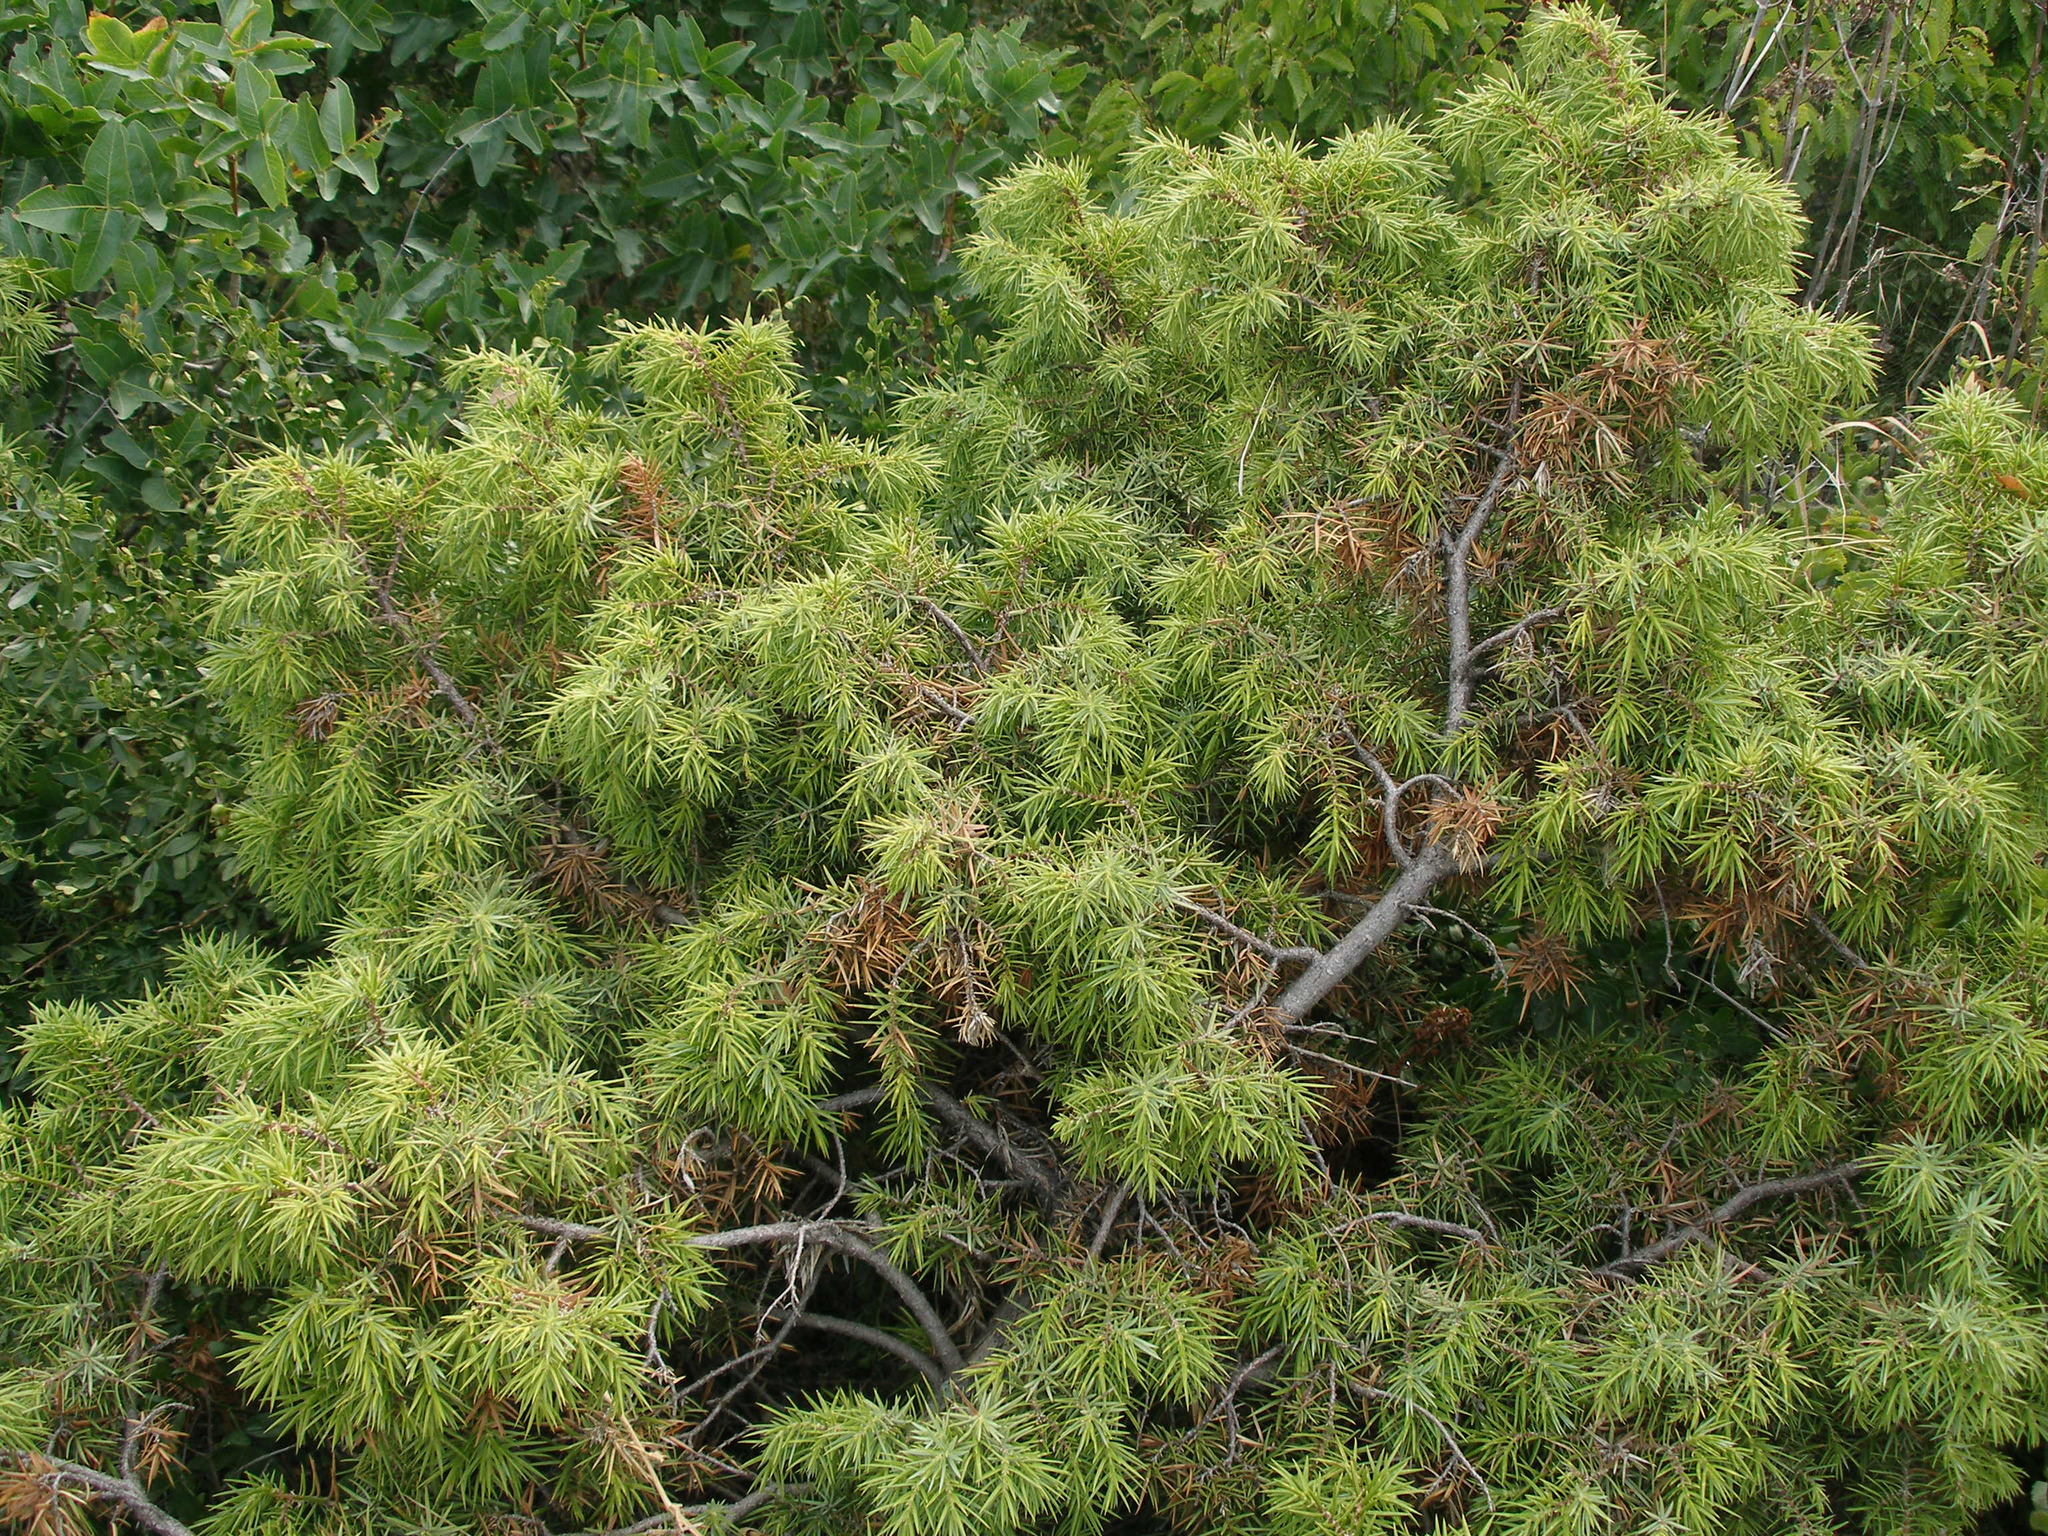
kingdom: Plantae
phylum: Tracheophyta
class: Pinopsida
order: Pinales
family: Cupressaceae
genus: Juniperus
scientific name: Juniperus oxycedrus
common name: Prickly juniper
